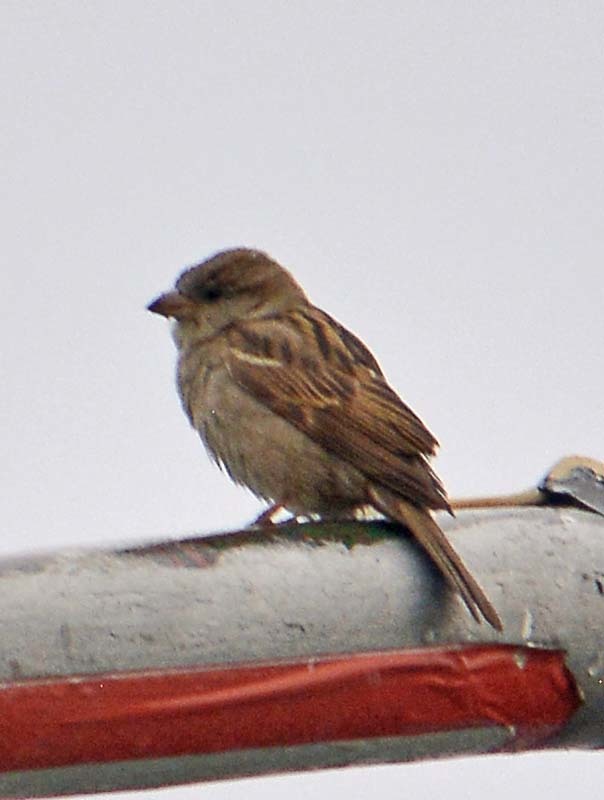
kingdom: Animalia
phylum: Chordata
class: Aves
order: Passeriformes
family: Passeridae
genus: Passer
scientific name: Passer domesticus
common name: House sparrow
